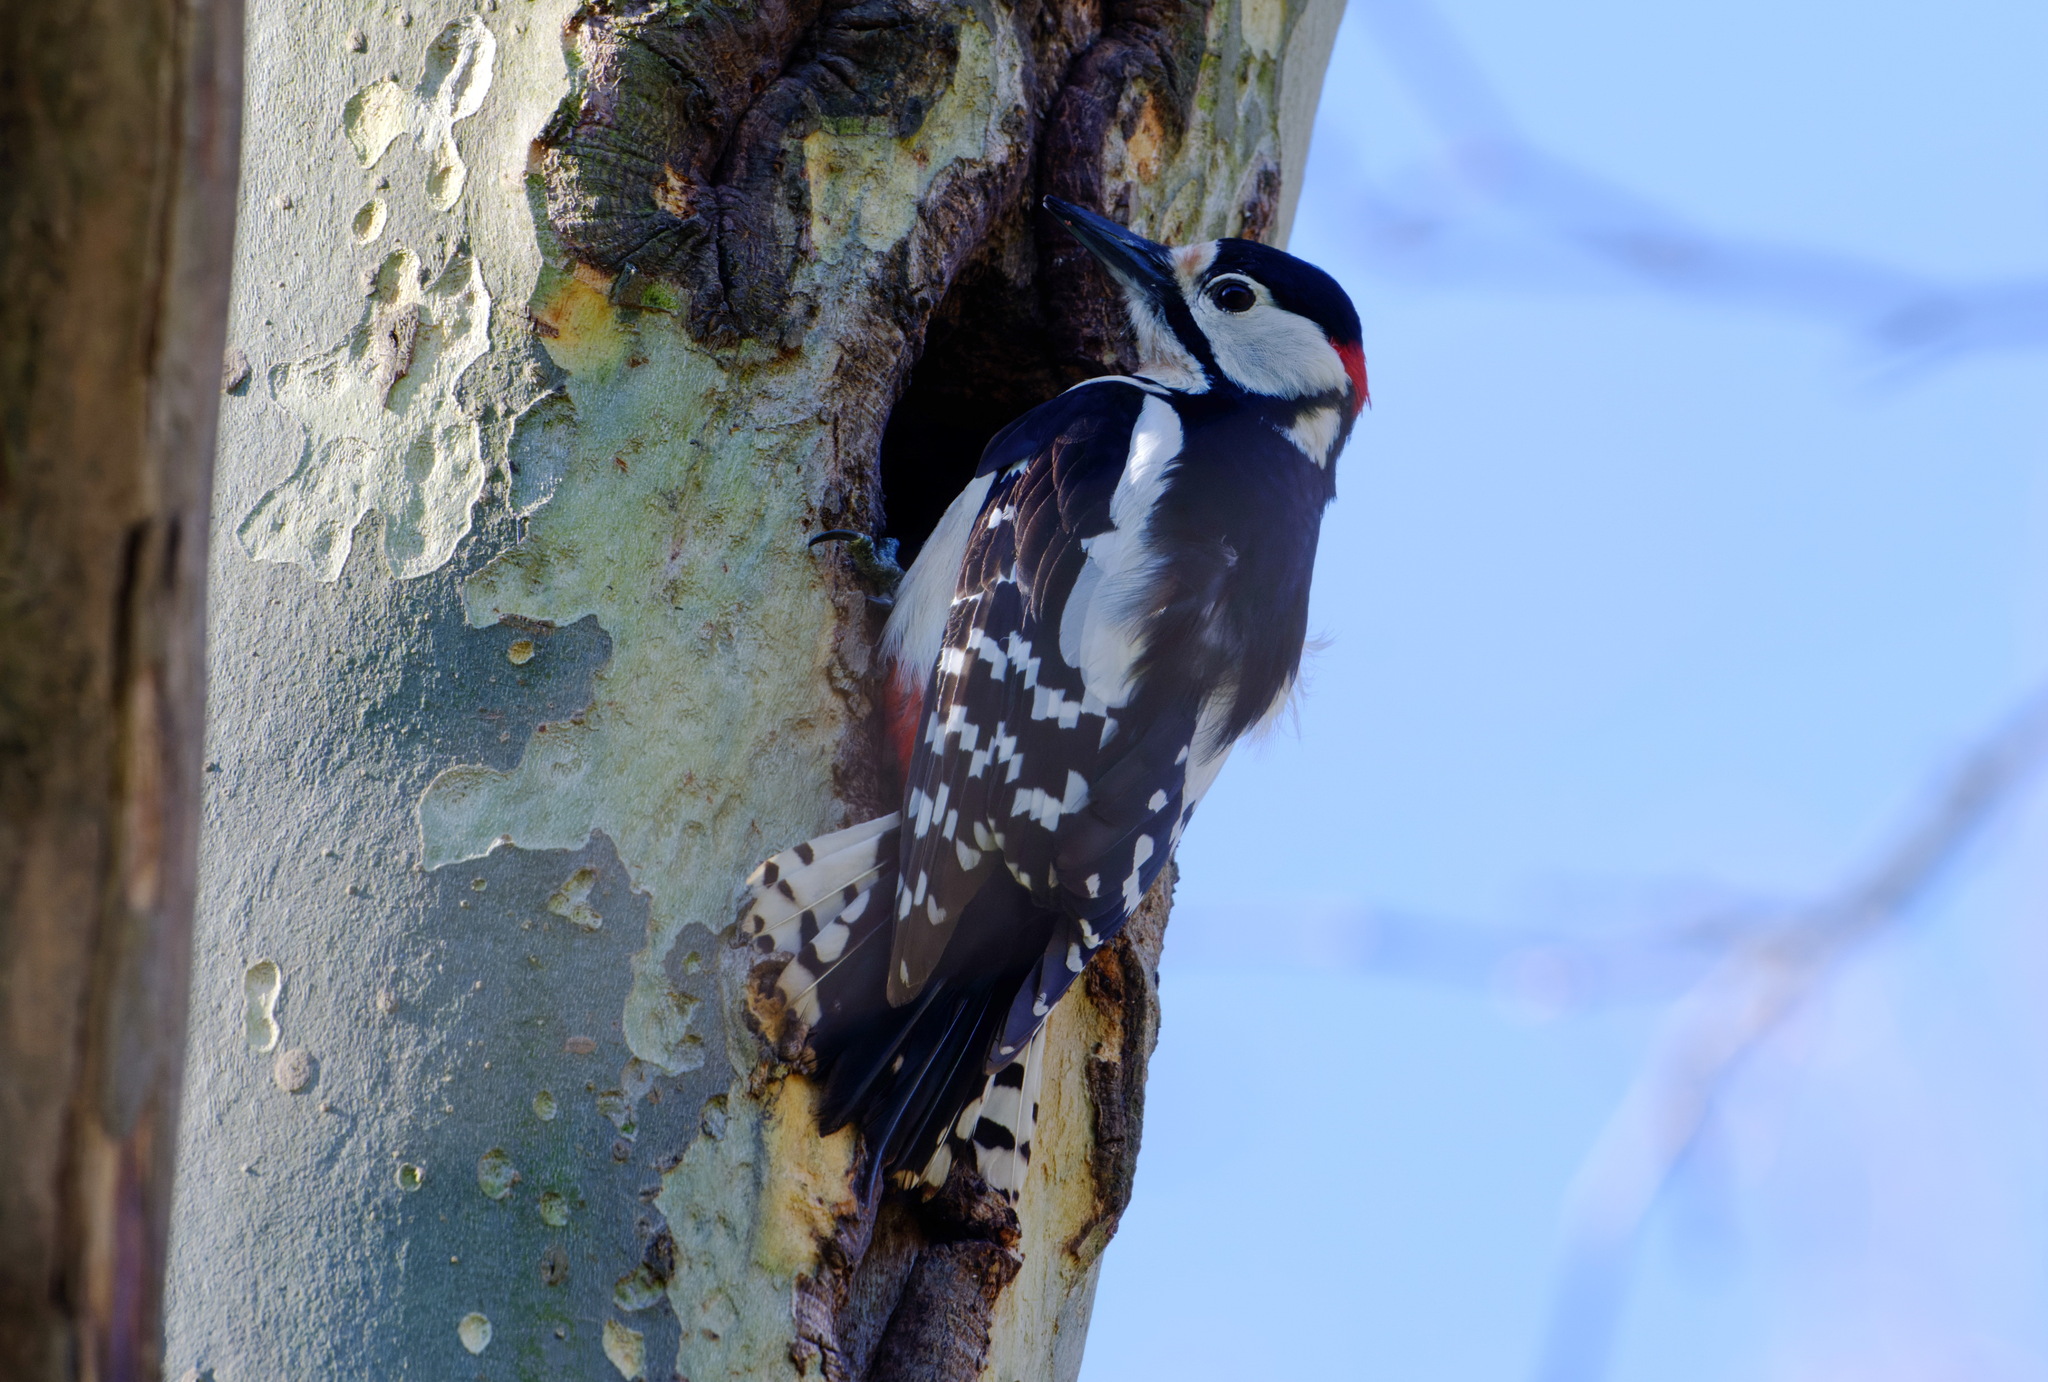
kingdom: Animalia
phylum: Chordata
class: Aves
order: Piciformes
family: Picidae
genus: Dendrocopos
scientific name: Dendrocopos major
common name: Great spotted woodpecker
